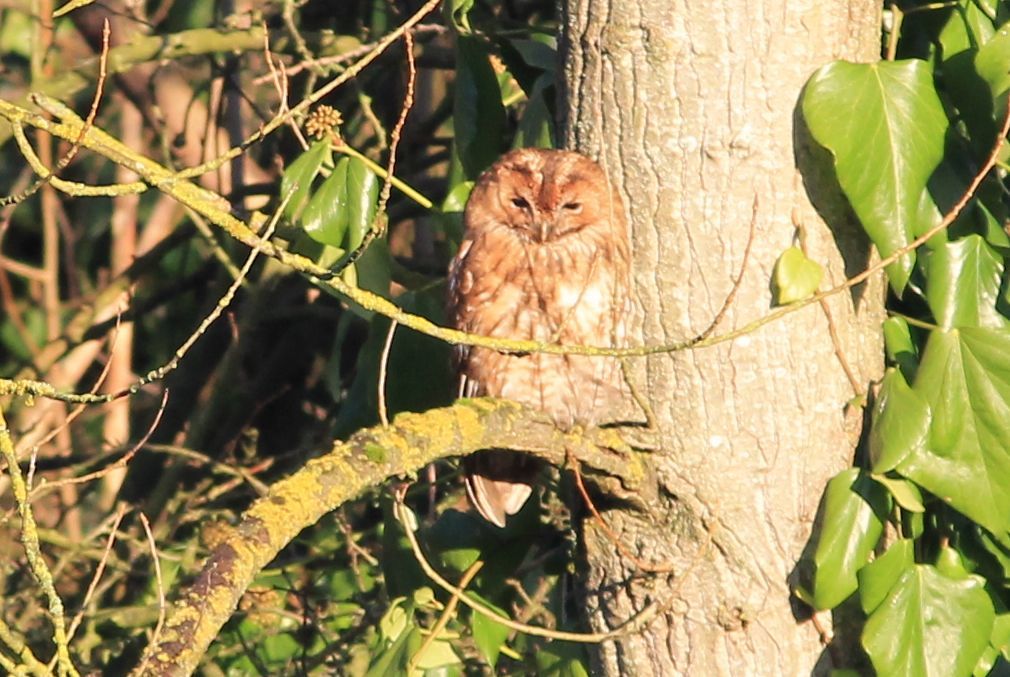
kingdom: Animalia
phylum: Chordata
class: Aves
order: Strigiformes
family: Strigidae
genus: Strix
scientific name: Strix aluco
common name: Tawny owl
